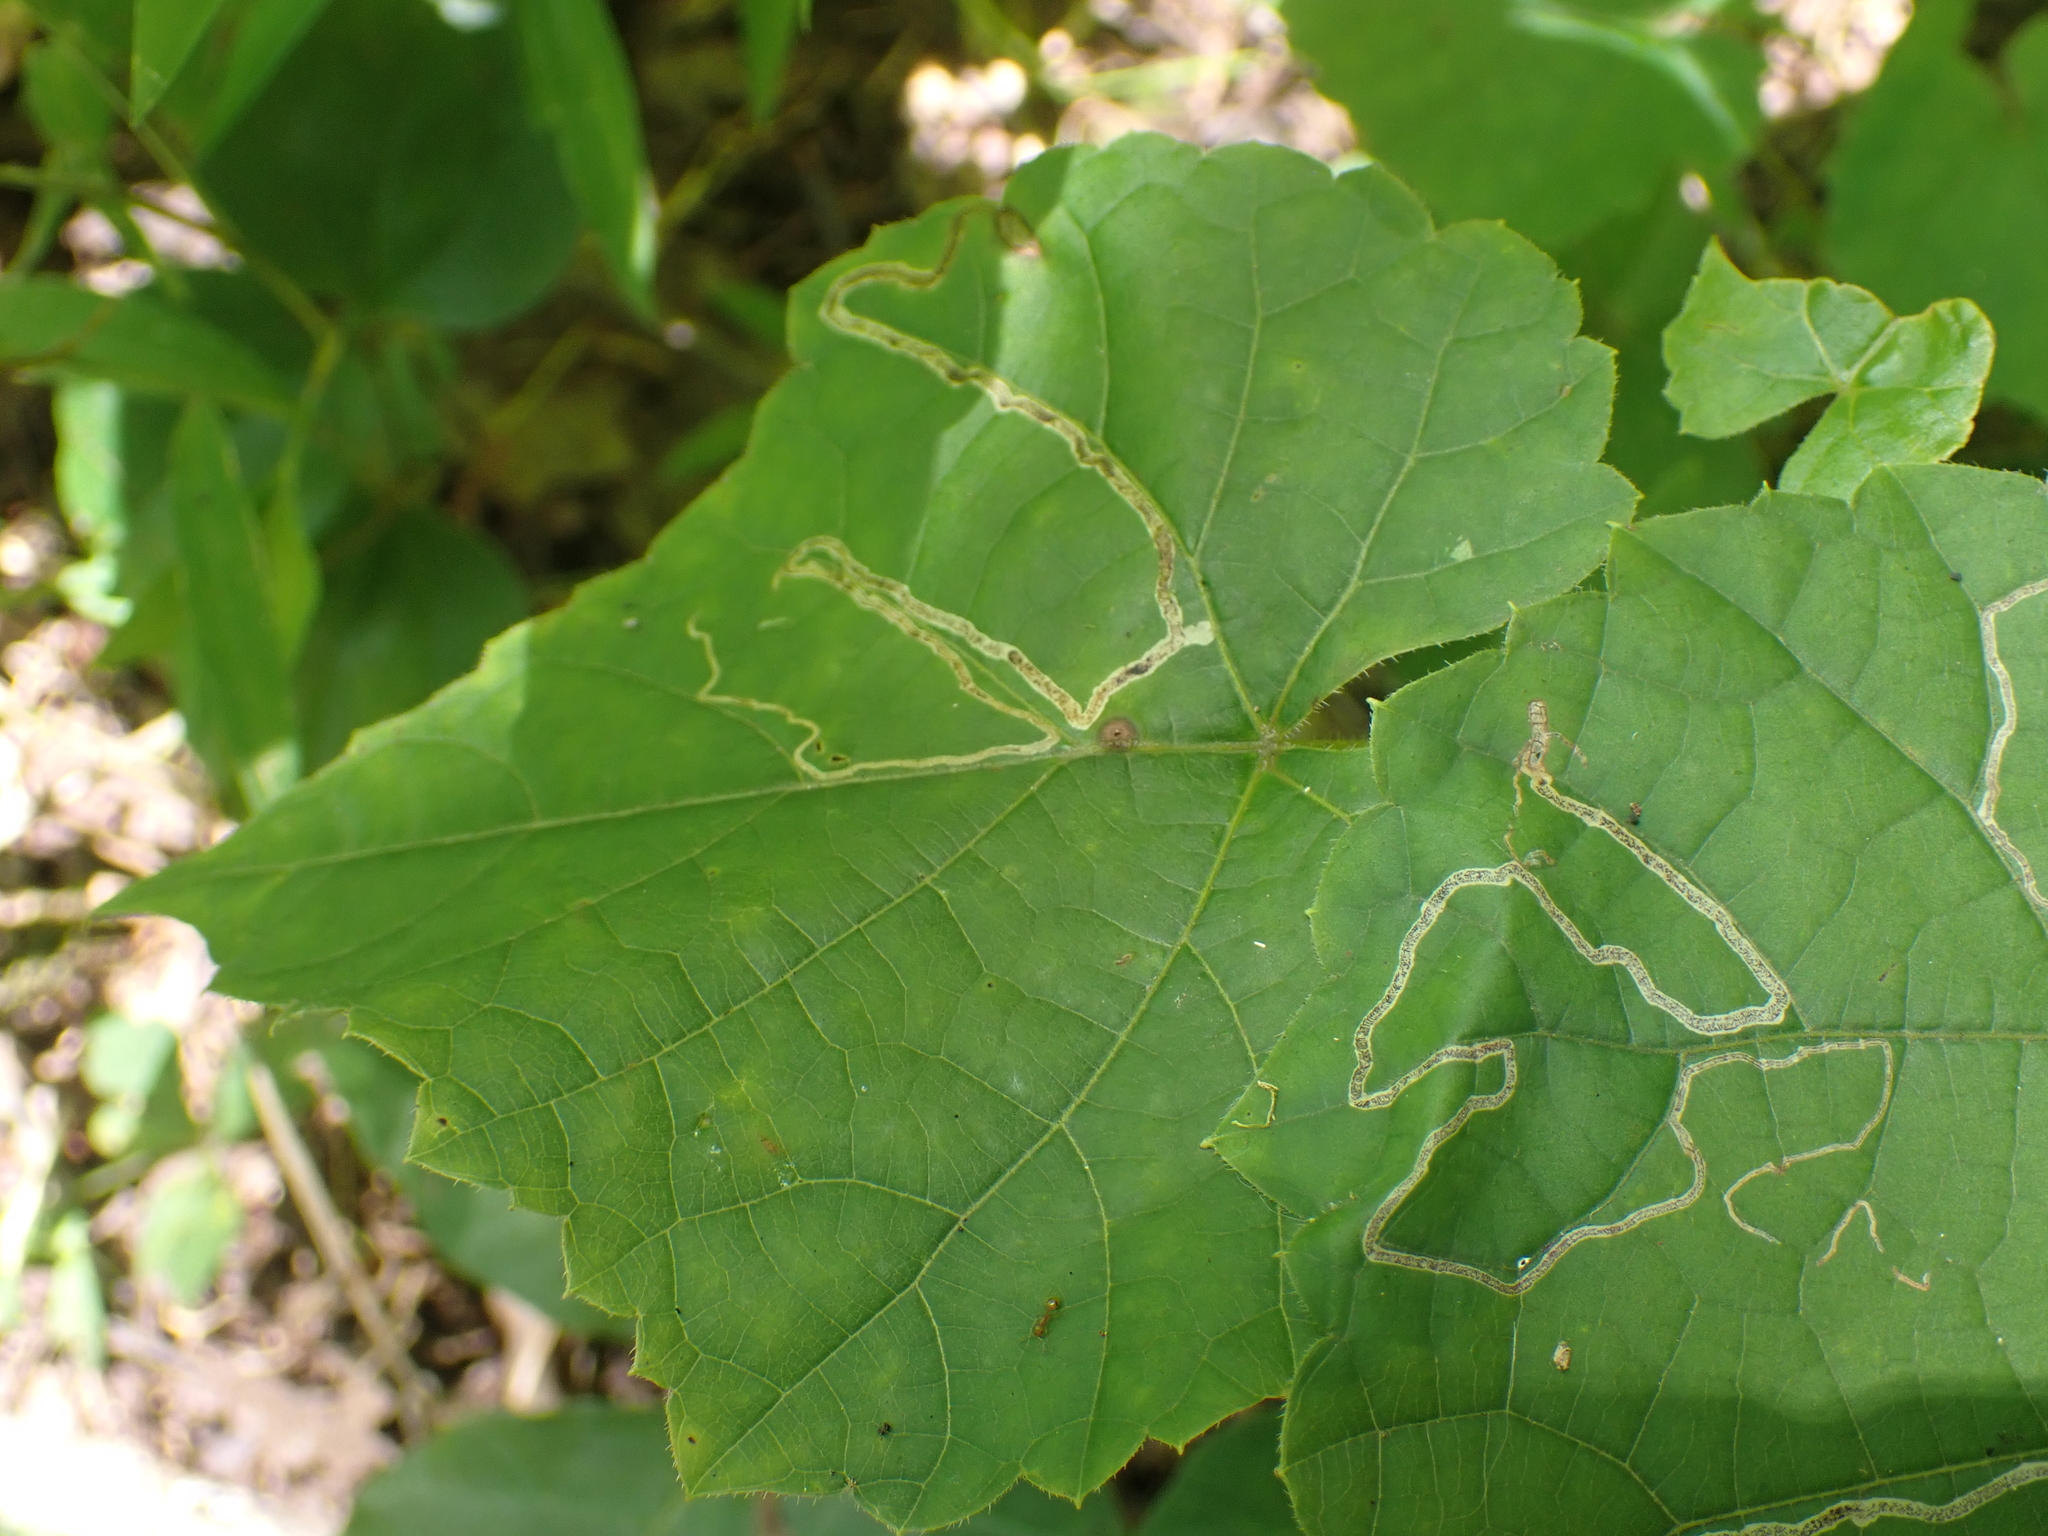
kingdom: Animalia
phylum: Arthropoda
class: Insecta
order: Lepidoptera
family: Gracillariidae
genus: Phyllocnistis
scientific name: Phyllocnistis vitifoliella
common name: Grape leaf-miner moth
